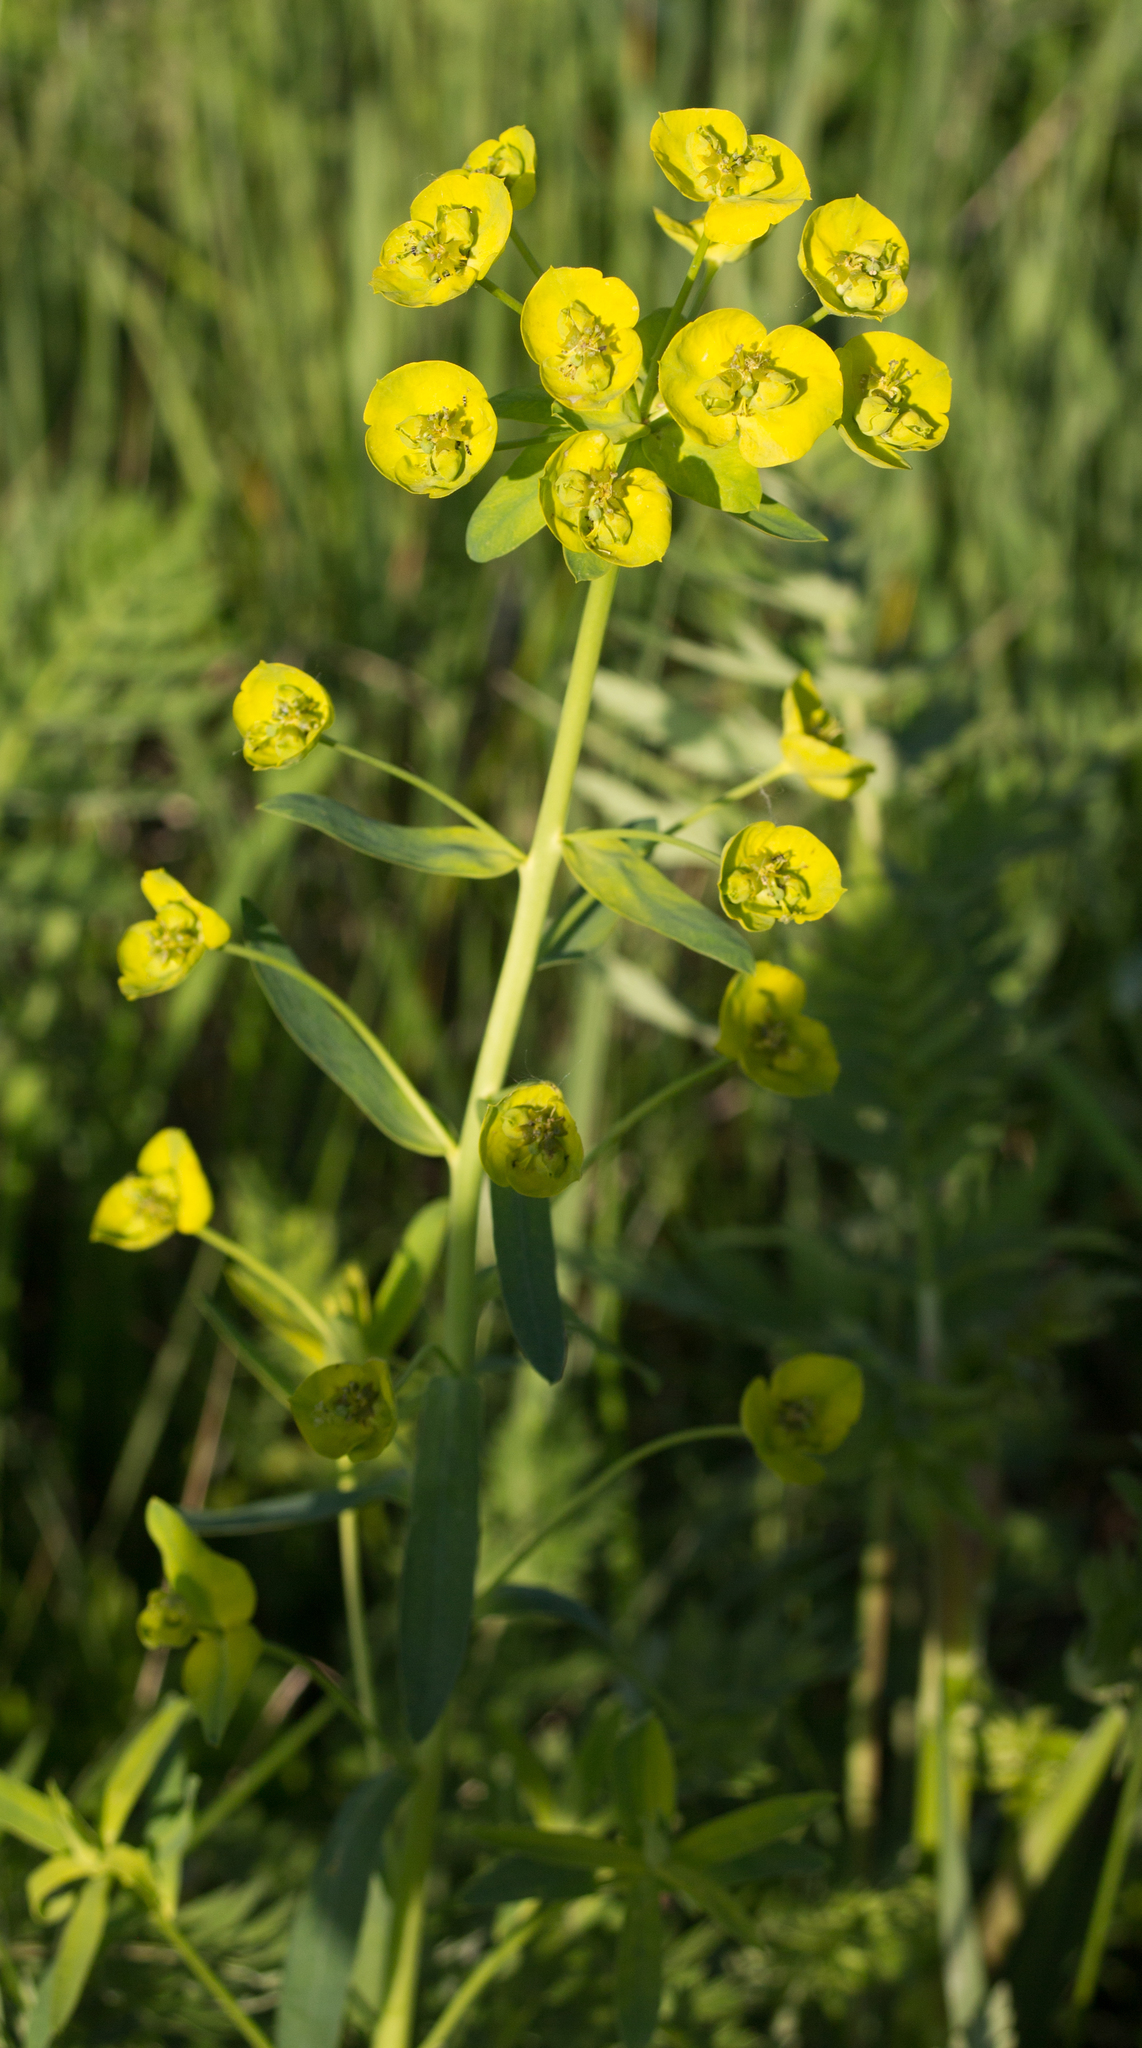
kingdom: Plantae
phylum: Tracheophyta
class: Magnoliopsida
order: Malpighiales
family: Euphorbiaceae
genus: Euphorbia
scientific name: Euphorbia virgata
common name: Leafy spurge
